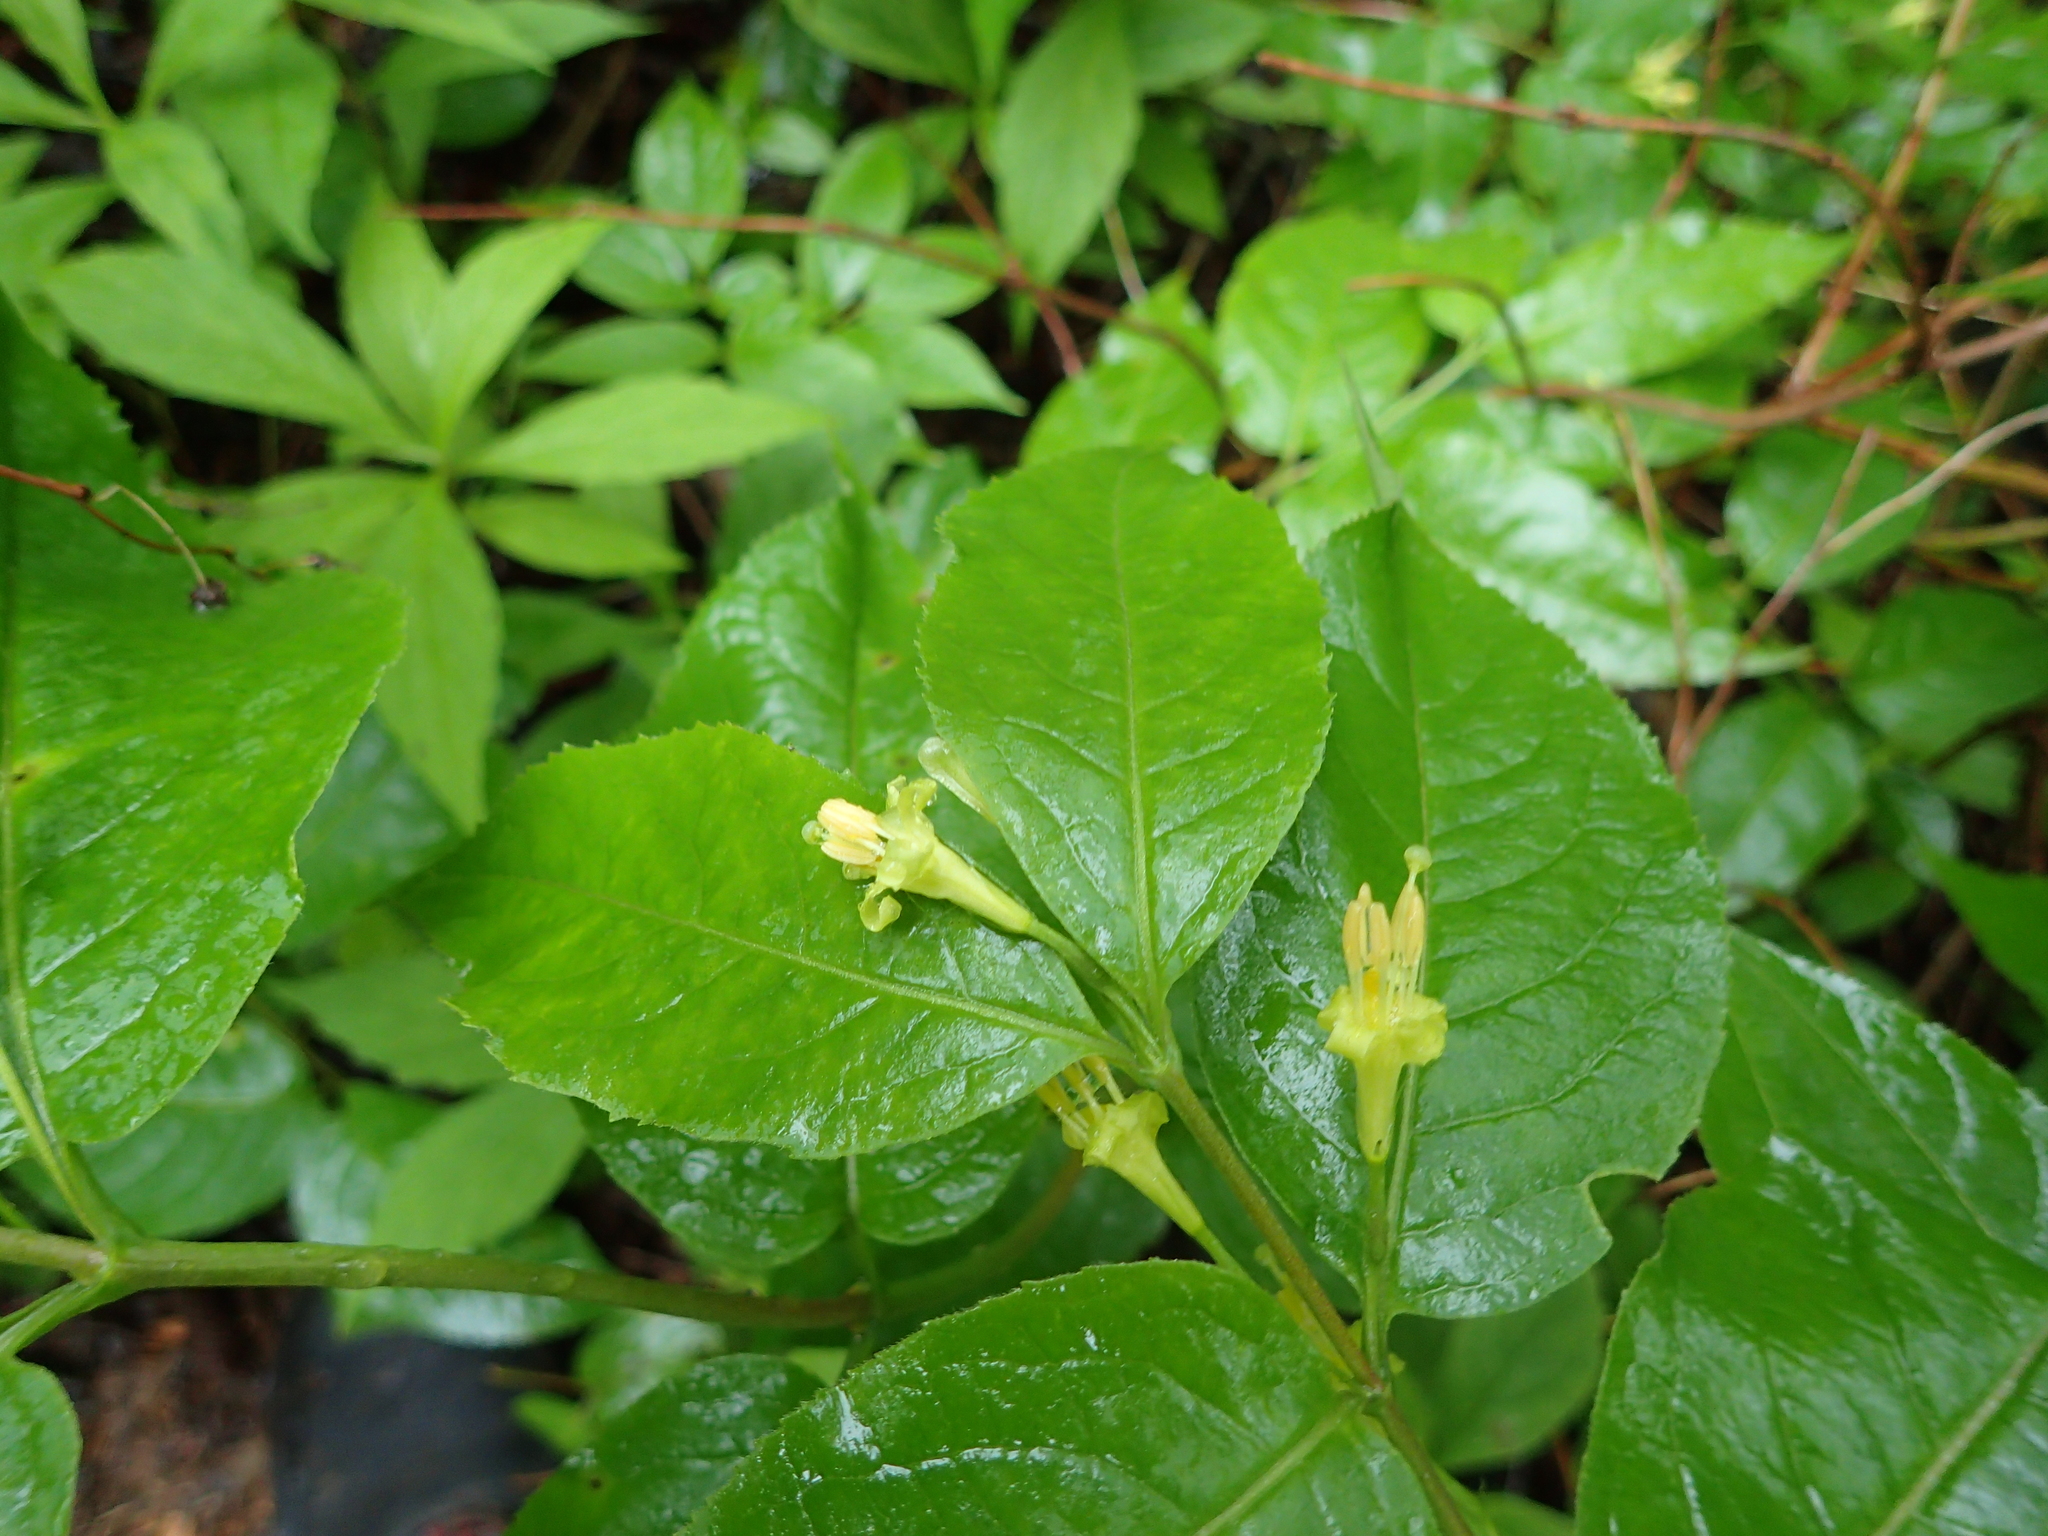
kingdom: Plantae
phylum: Tracheophyta
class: Magnoliopsida
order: Dipsacales
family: Caprifoliaceae
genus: Diervilla
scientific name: Diervilla lonicera
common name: Bush-honeysuckle
